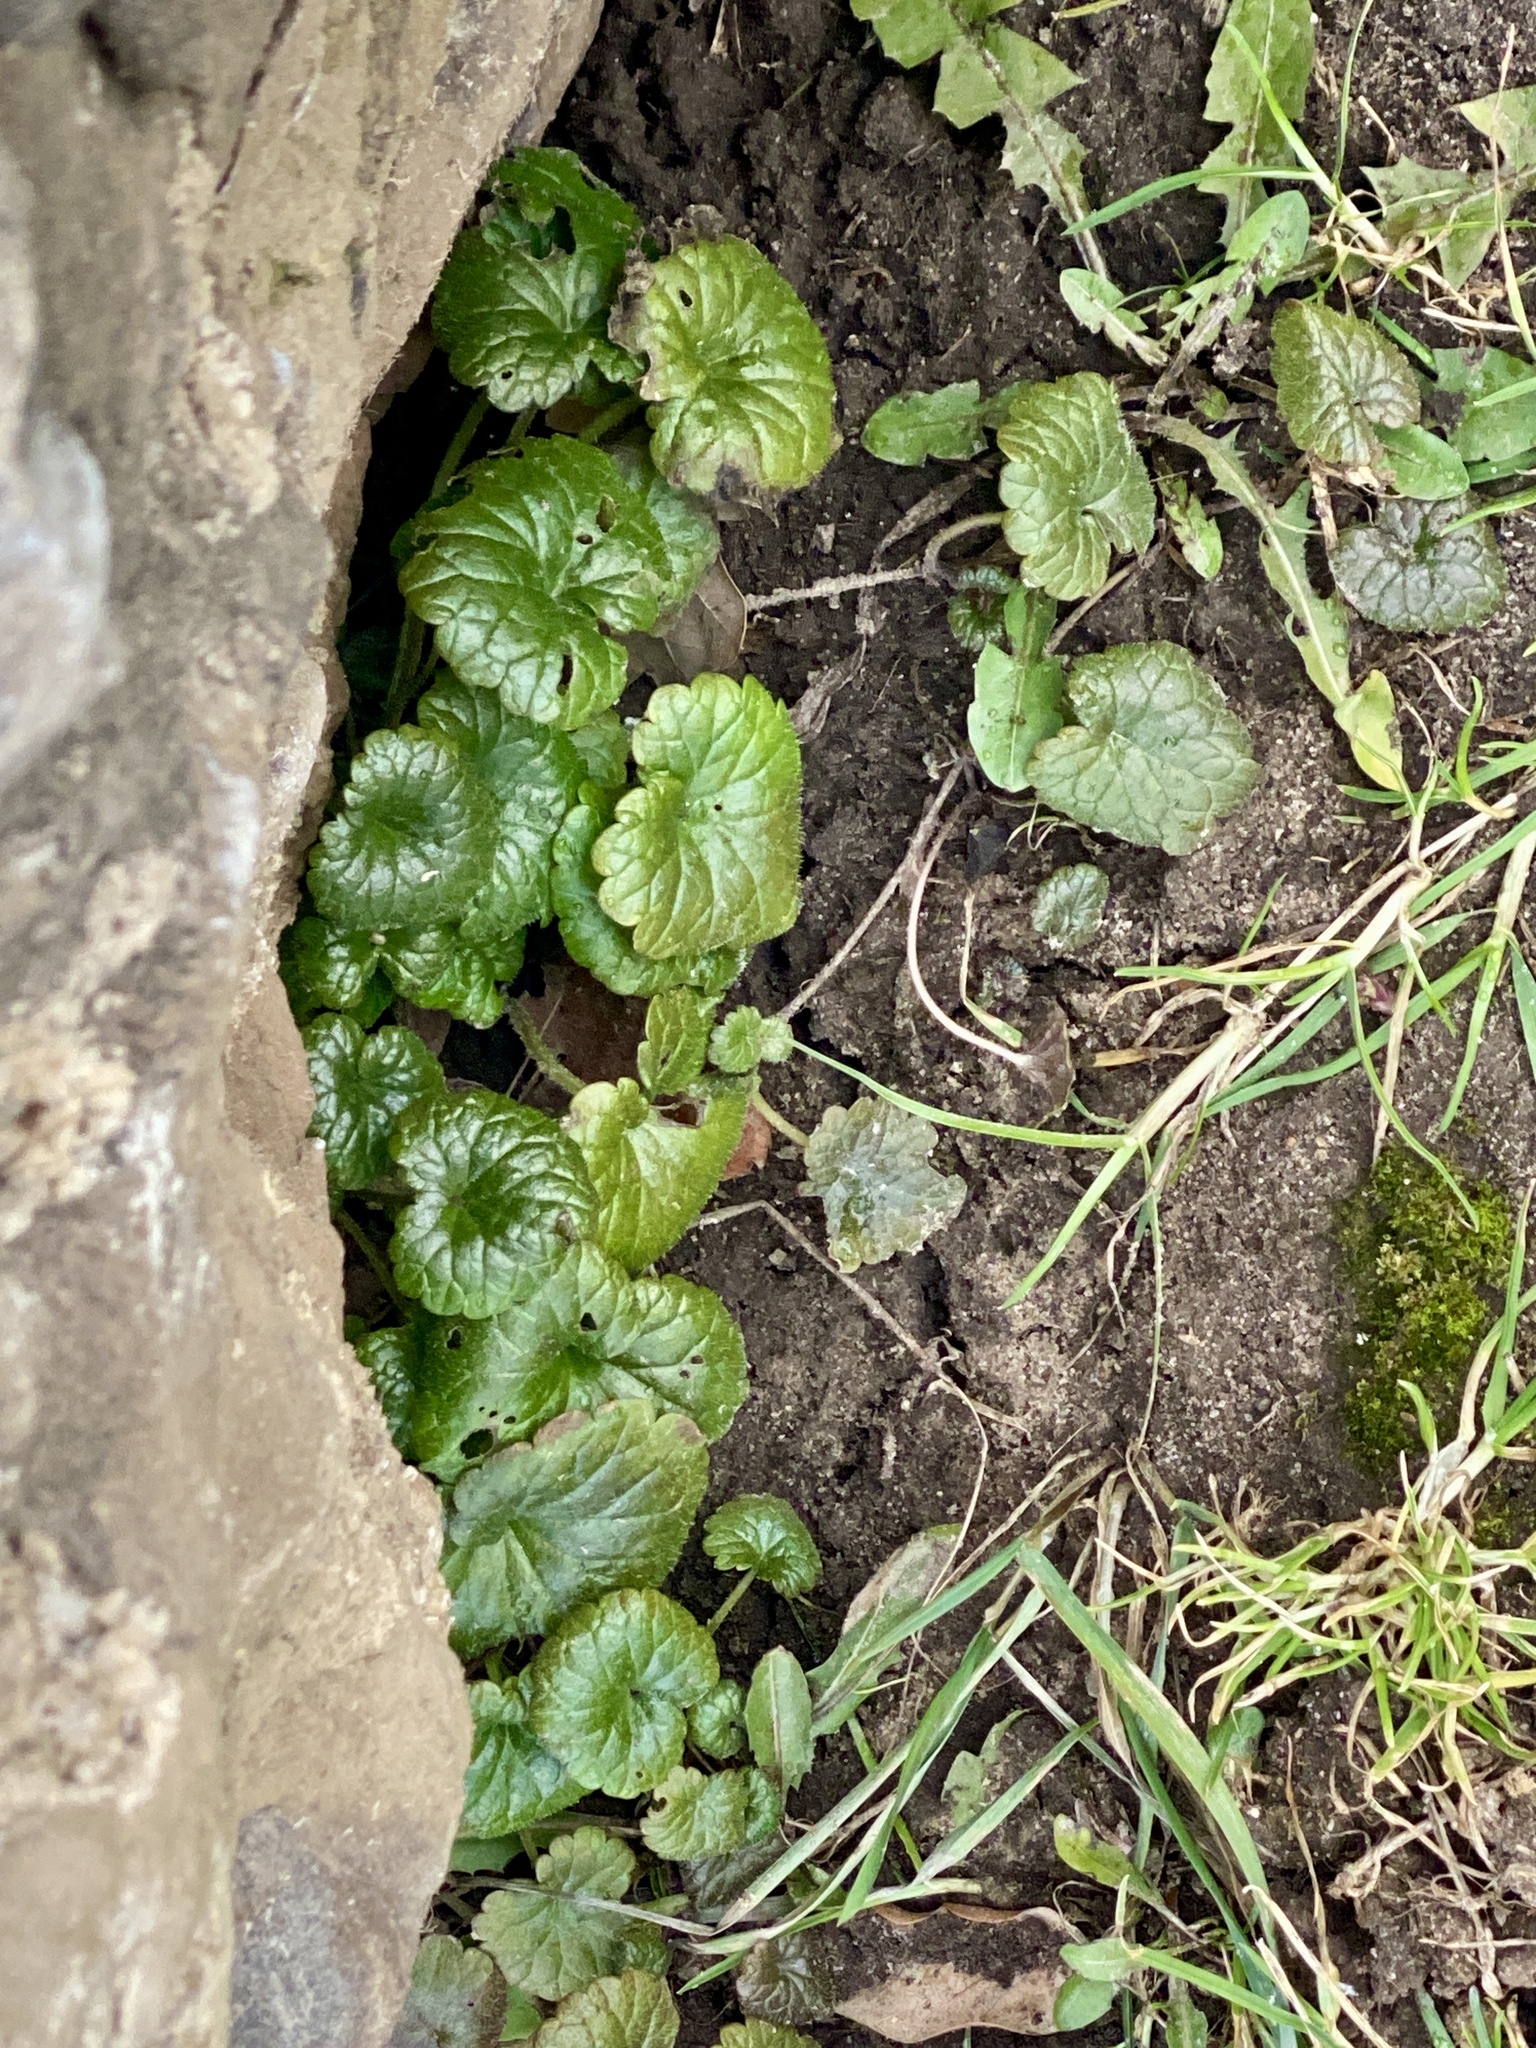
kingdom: Plantae
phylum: Tracheophyta
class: Magnoliopsida
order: Lamiales
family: Lamiaceae
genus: Glechoma
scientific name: Glechoma hederacea
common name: Ground ivy
